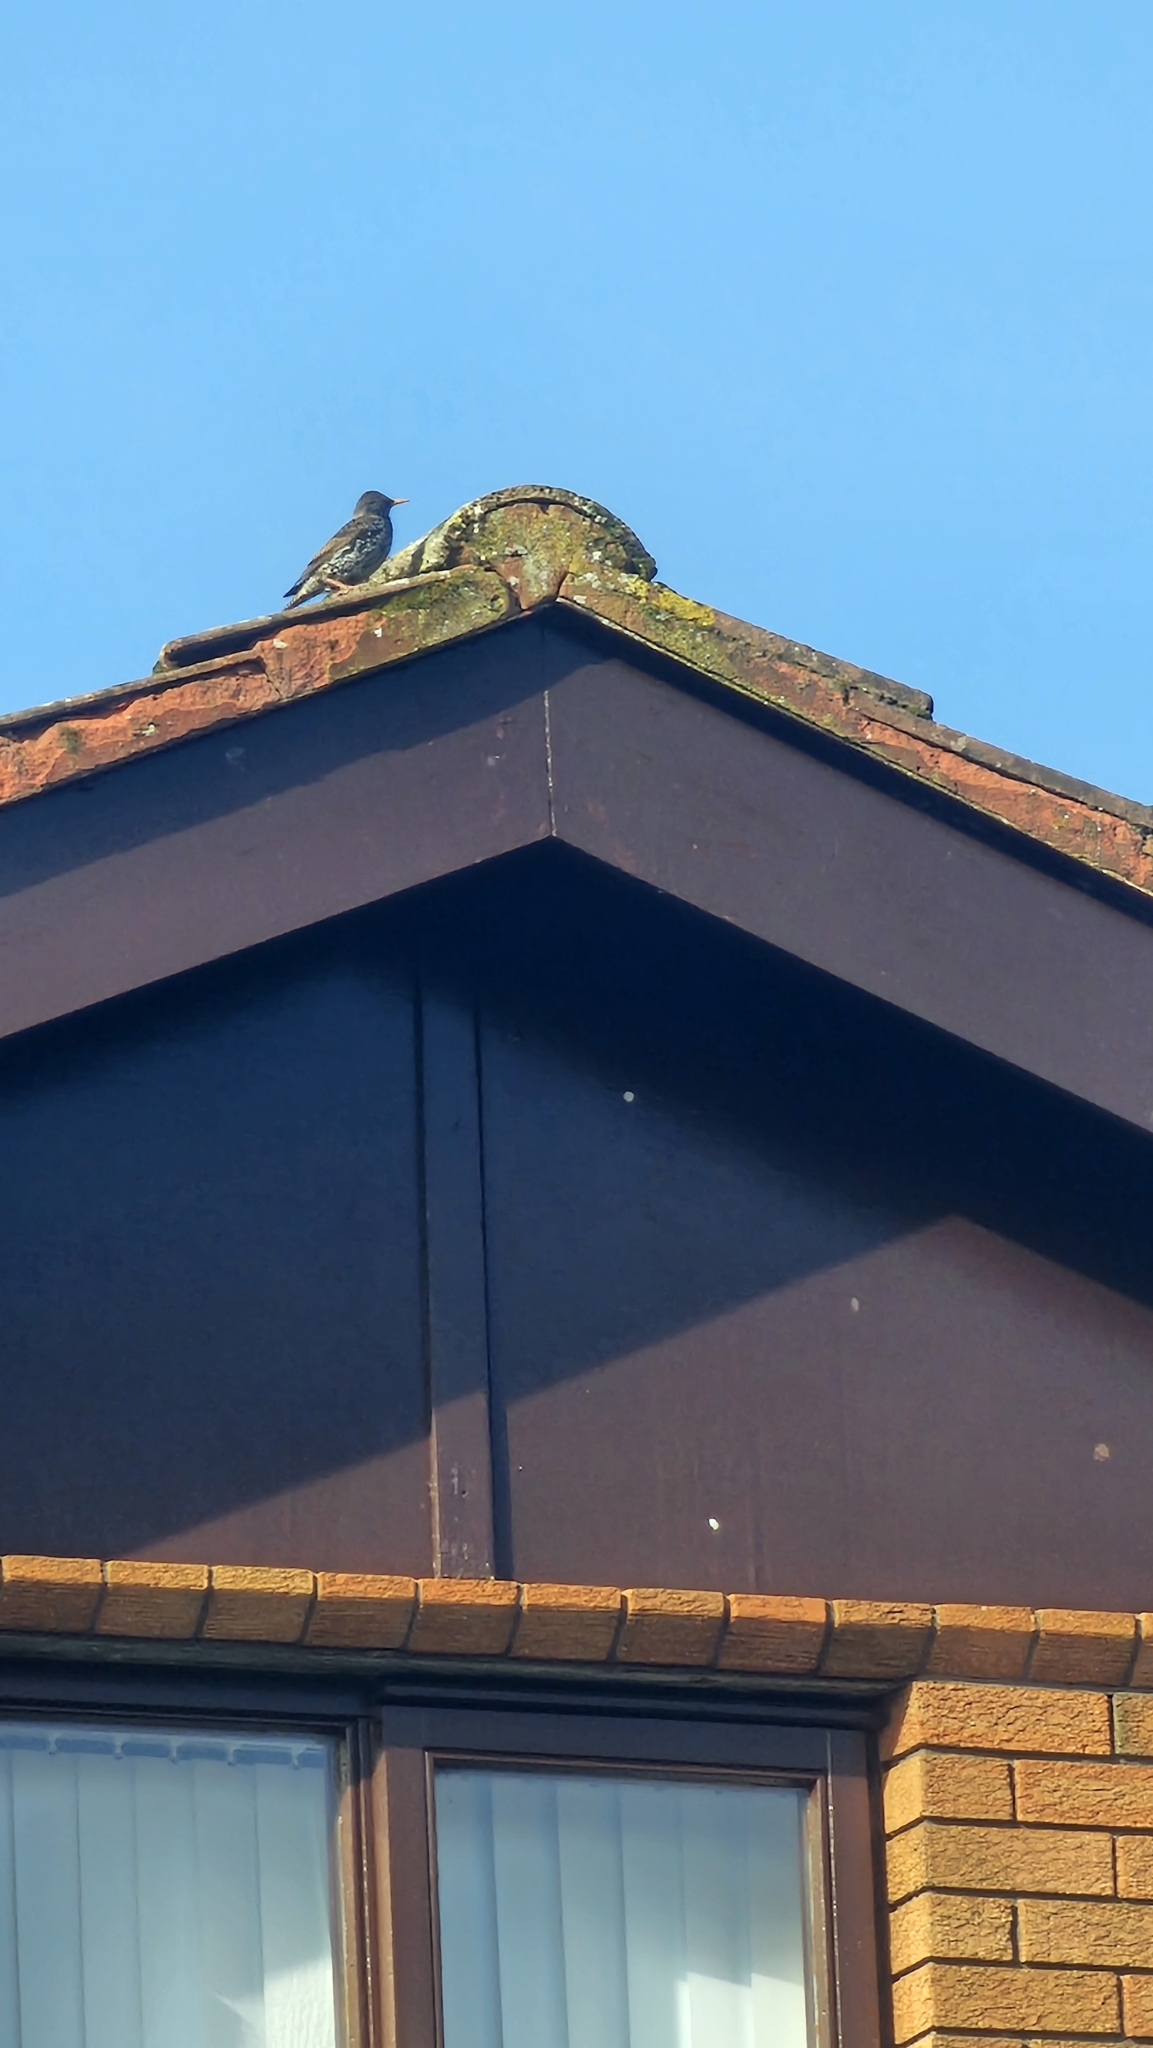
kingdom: Animalia
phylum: Chordata
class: Aves
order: Passeriformes
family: Sturnidae
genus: Sturnus
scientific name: Sturnus vulgaris
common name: Common starling
